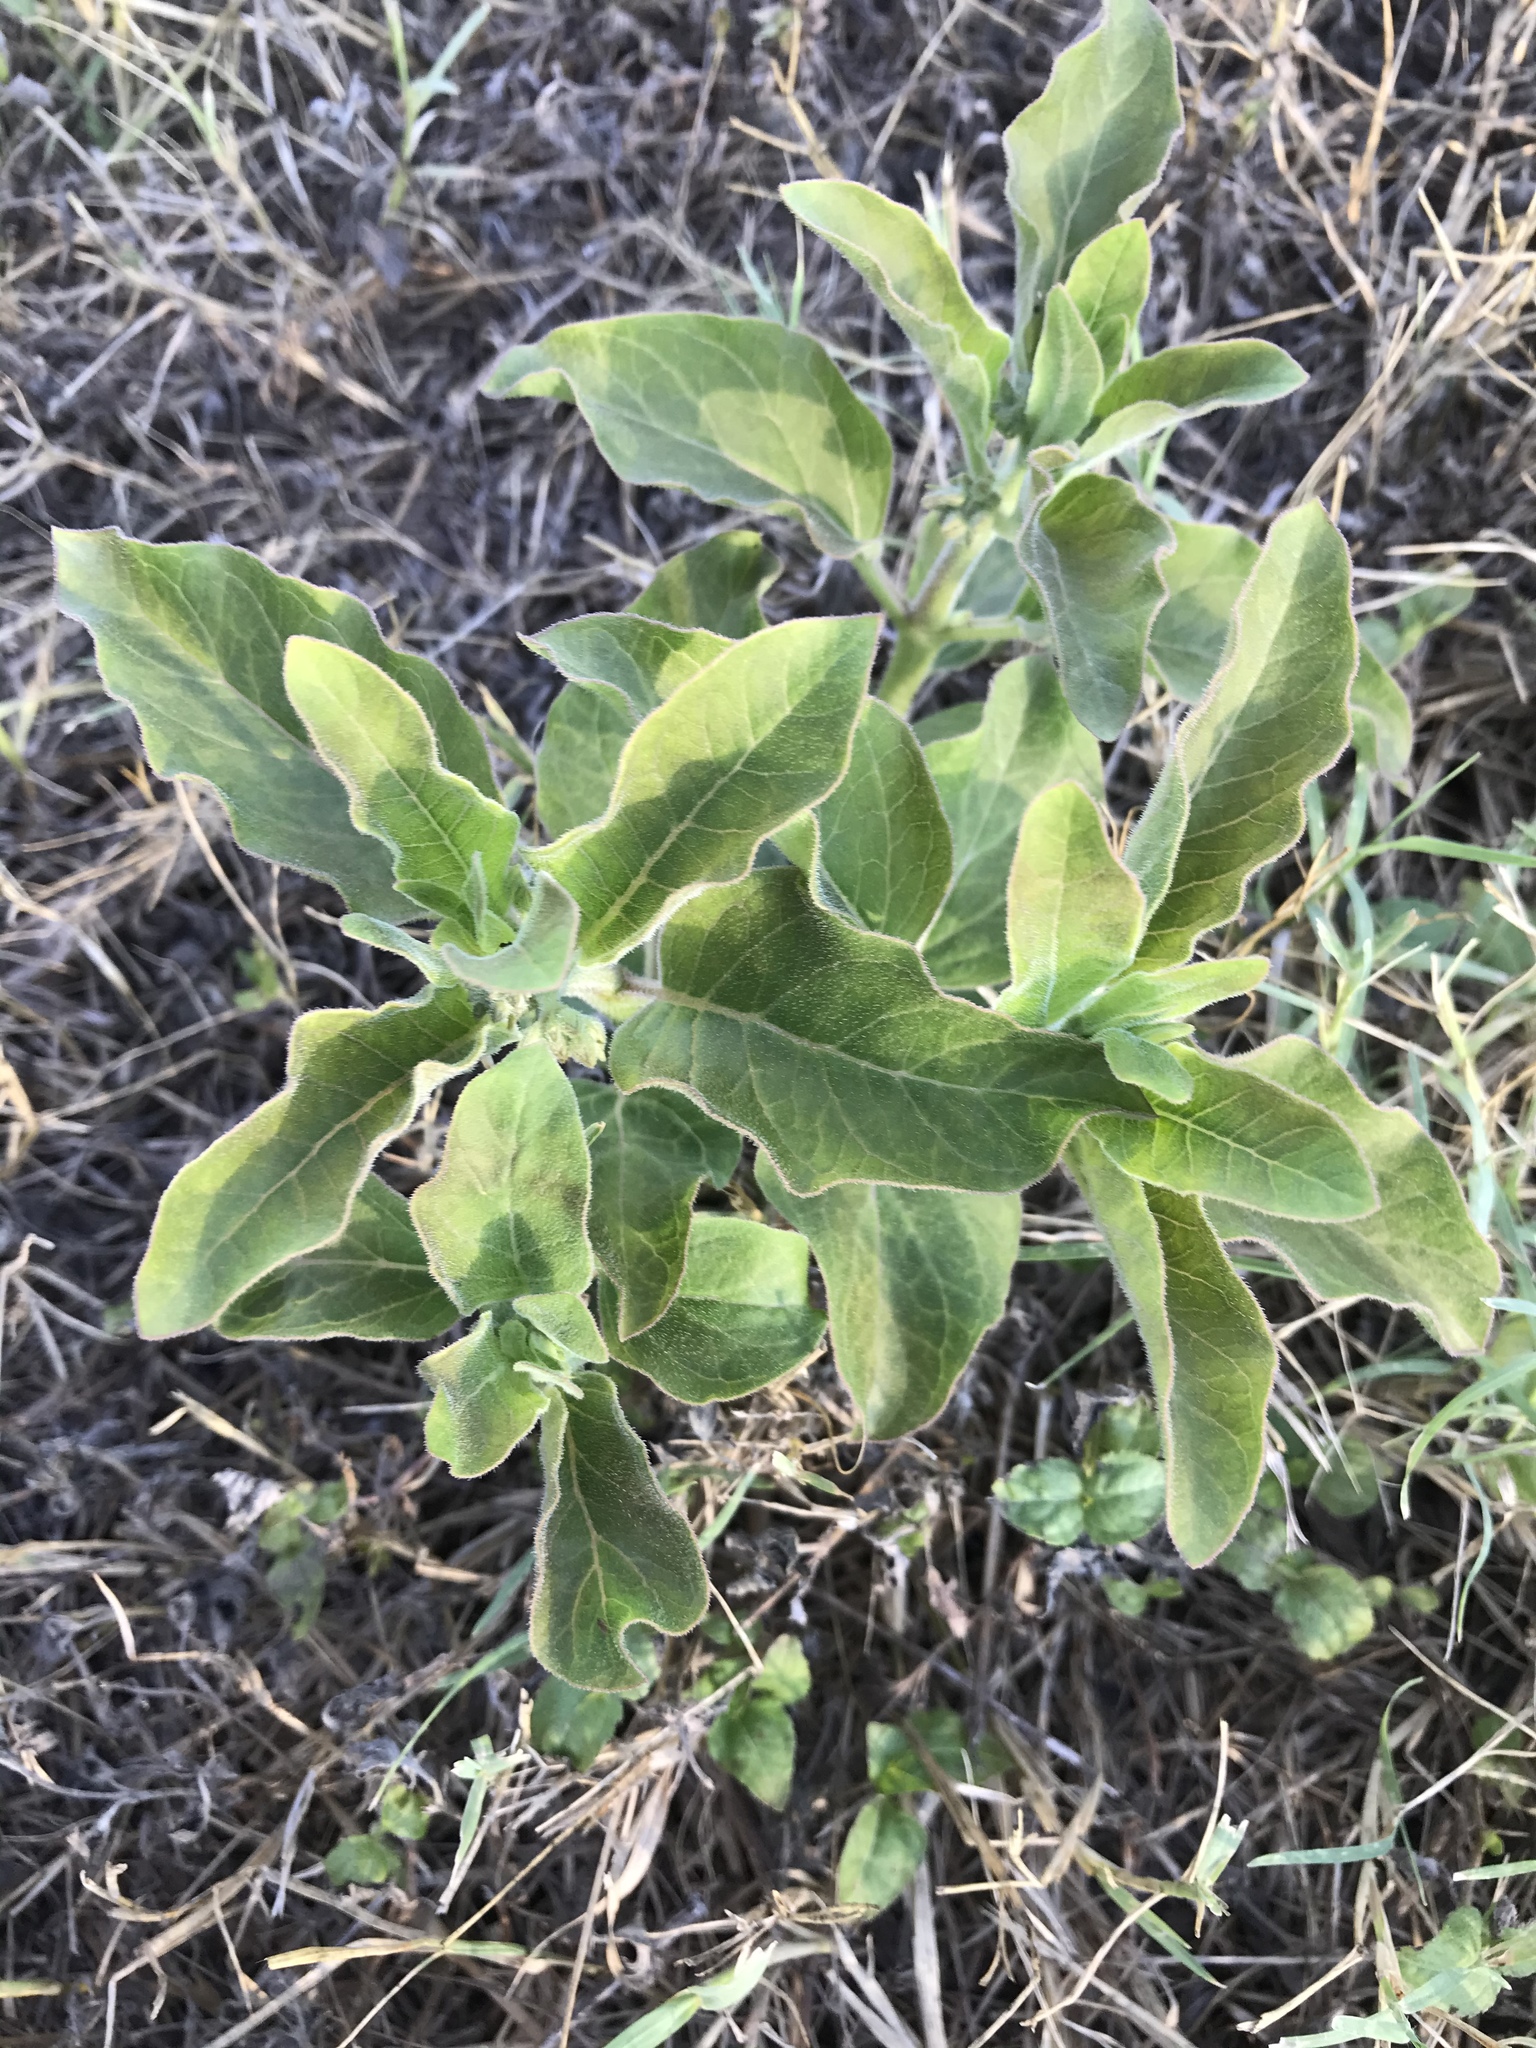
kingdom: Plantae
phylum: Tracheophyta
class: Magnoliopsida
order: Gentianales
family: Apocynaceae
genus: Asclepias
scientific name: Asclepias oenotheroides
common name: Zizotes milkweed
